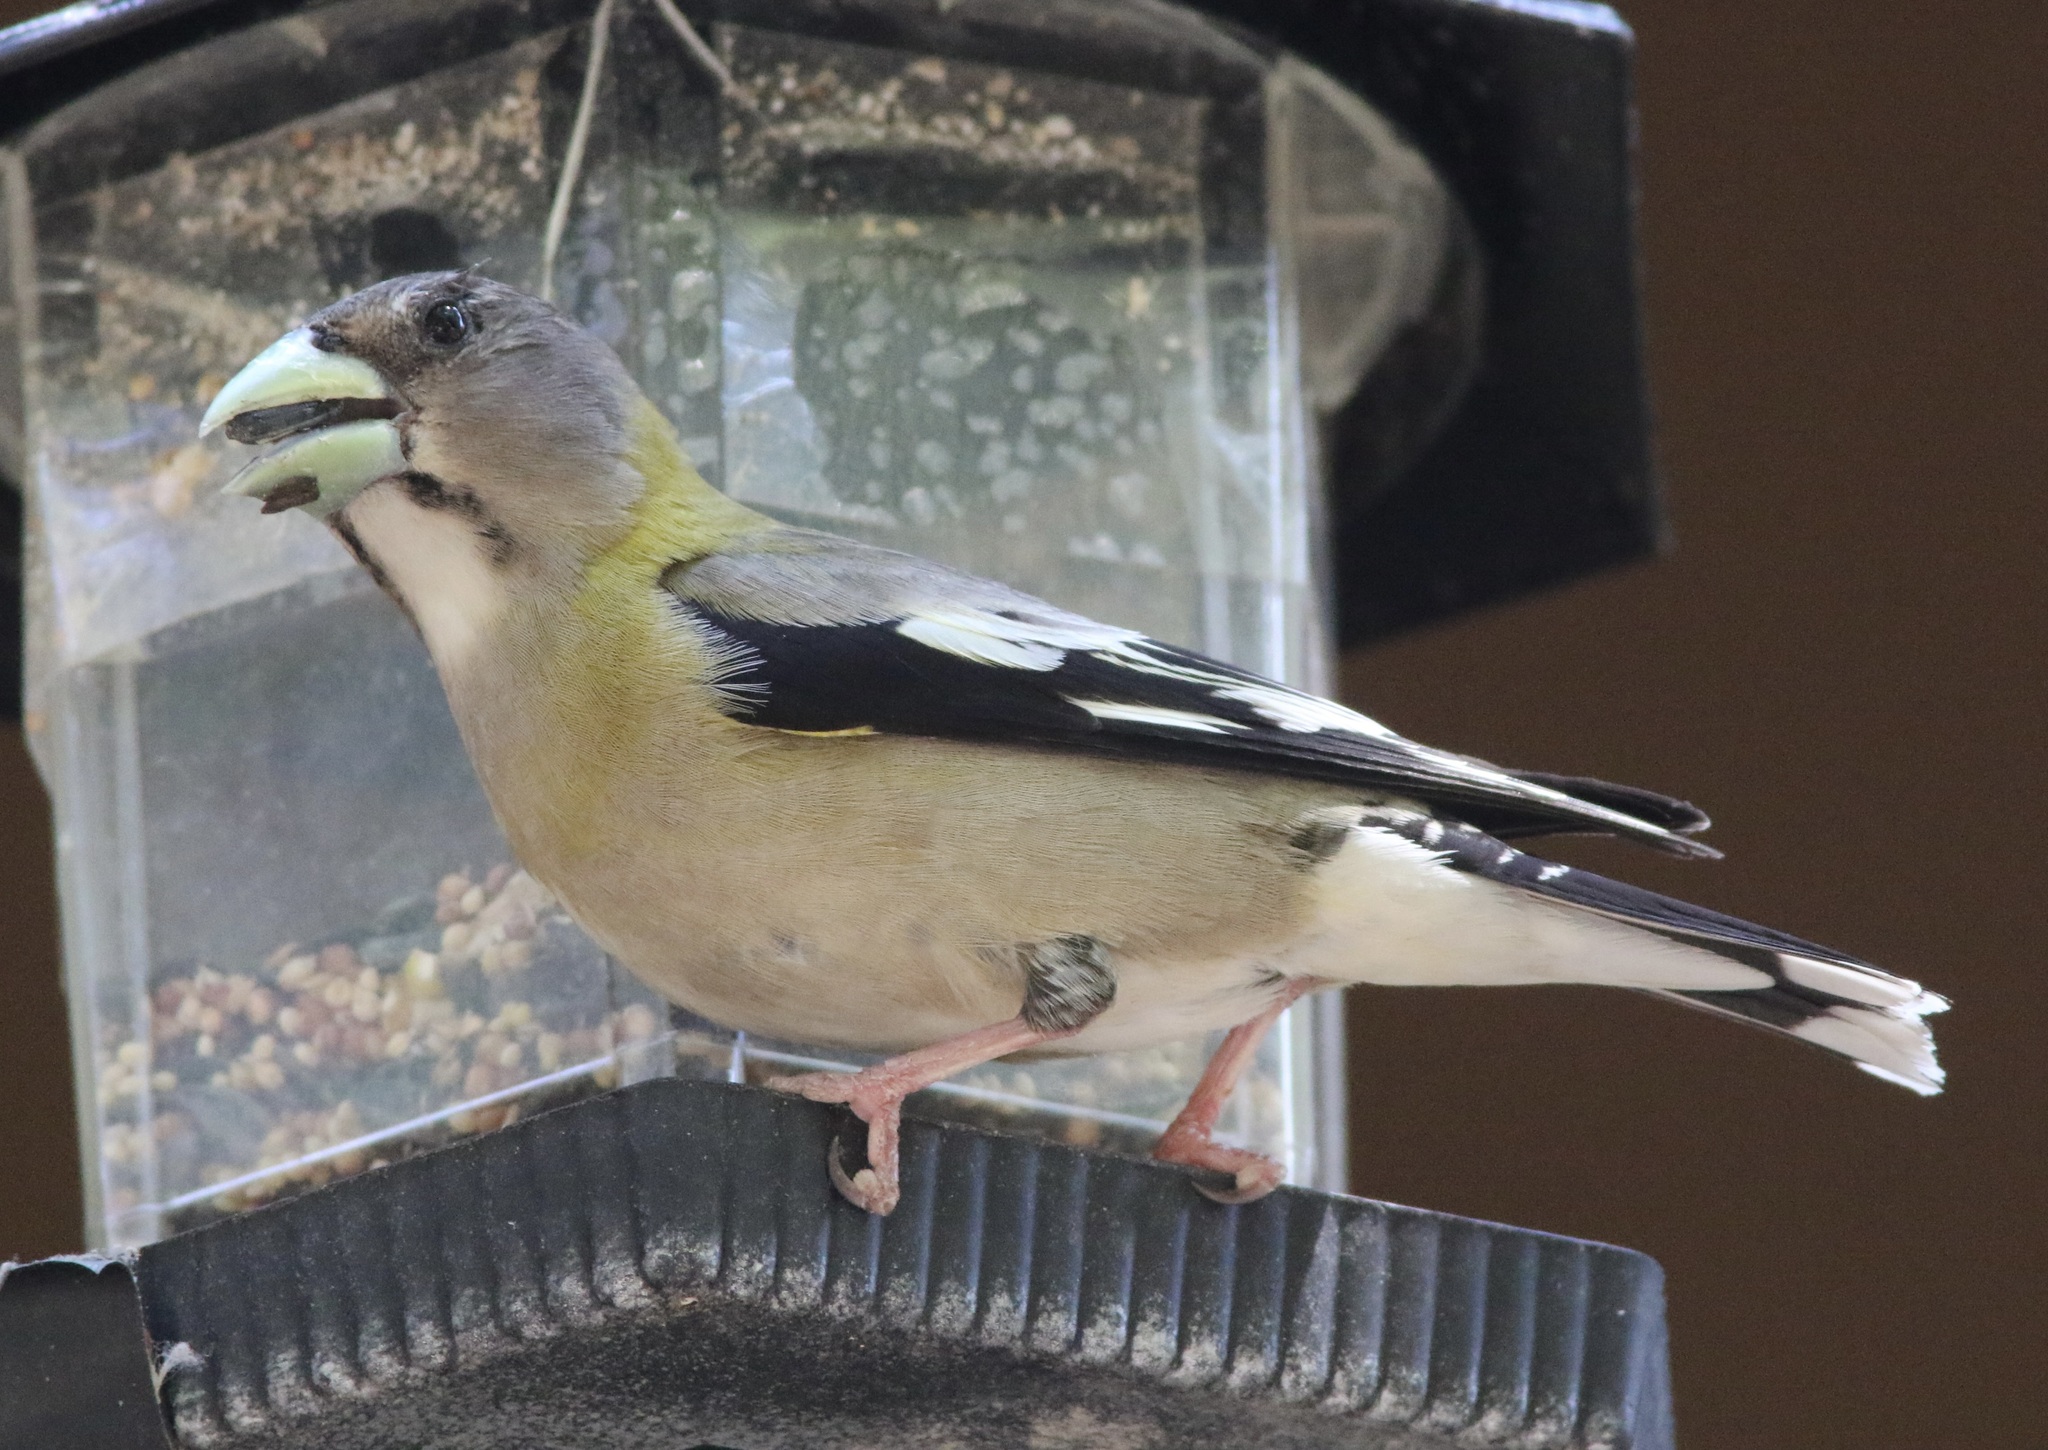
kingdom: Animalia
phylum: Chordata
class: Aves
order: Passeriformes
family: Fringillidae
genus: Hesperiphona
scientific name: Hesperiphona vespertina
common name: Evening grosbeak
